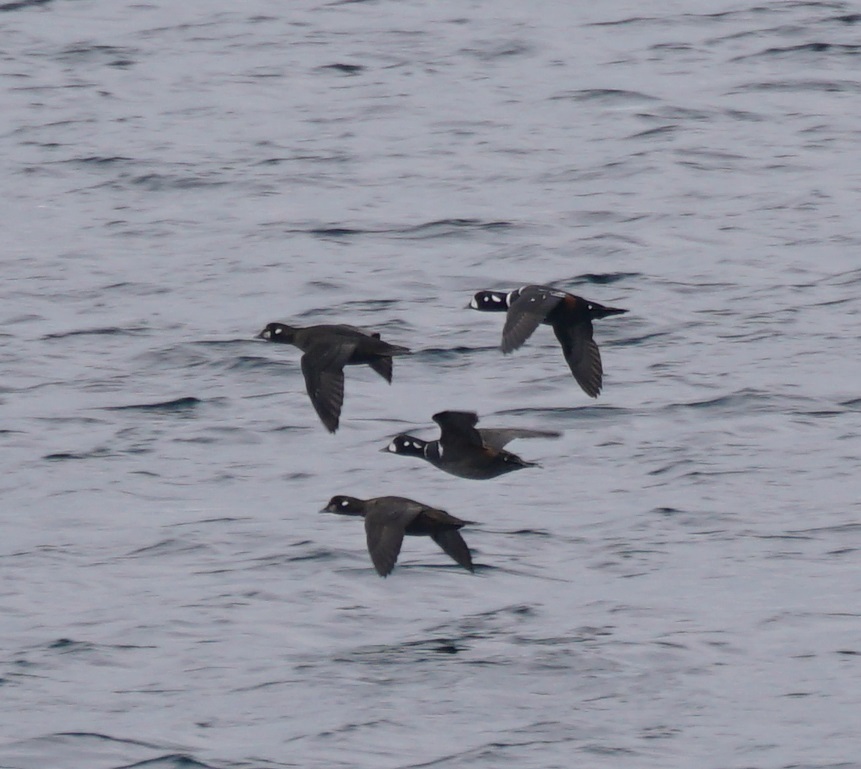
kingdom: Animalia
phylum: Chordata
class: Aves
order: Anseriformes
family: Anatidae
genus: Histrionicus
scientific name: Histrionicus histrionicus
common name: Harlequin duck
